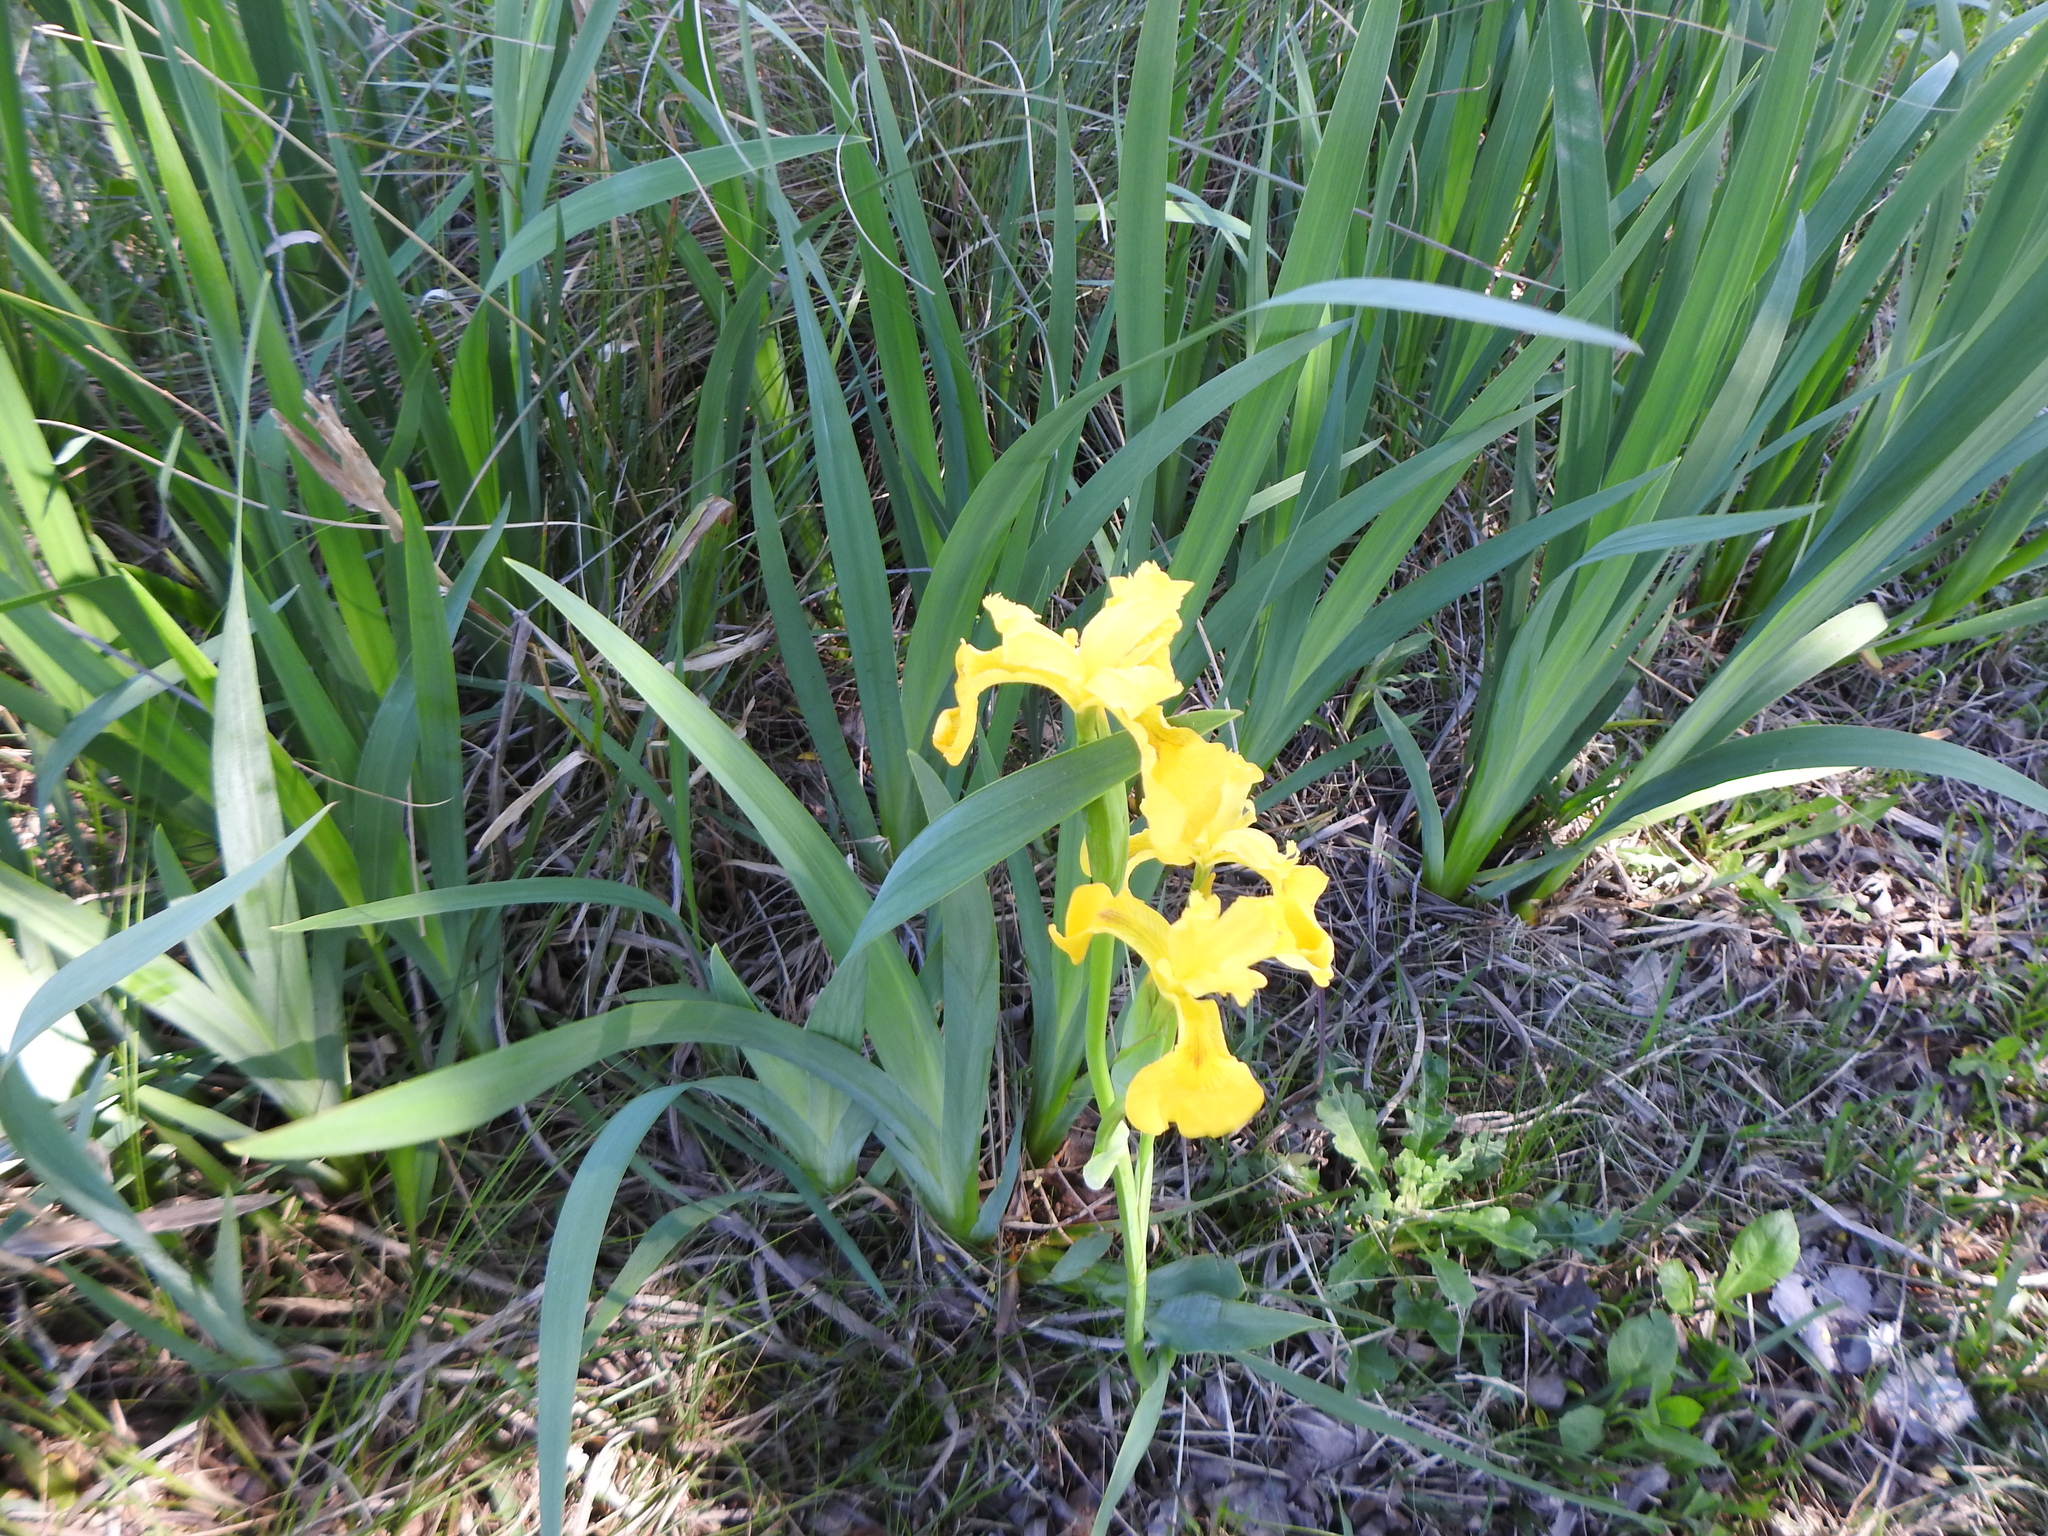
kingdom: Plantae
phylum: Tracheophyta
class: Liliopsida
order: Asparagales
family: Iridaceae
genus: Iris
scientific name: Iris pseudacorus
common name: Yellow flag
